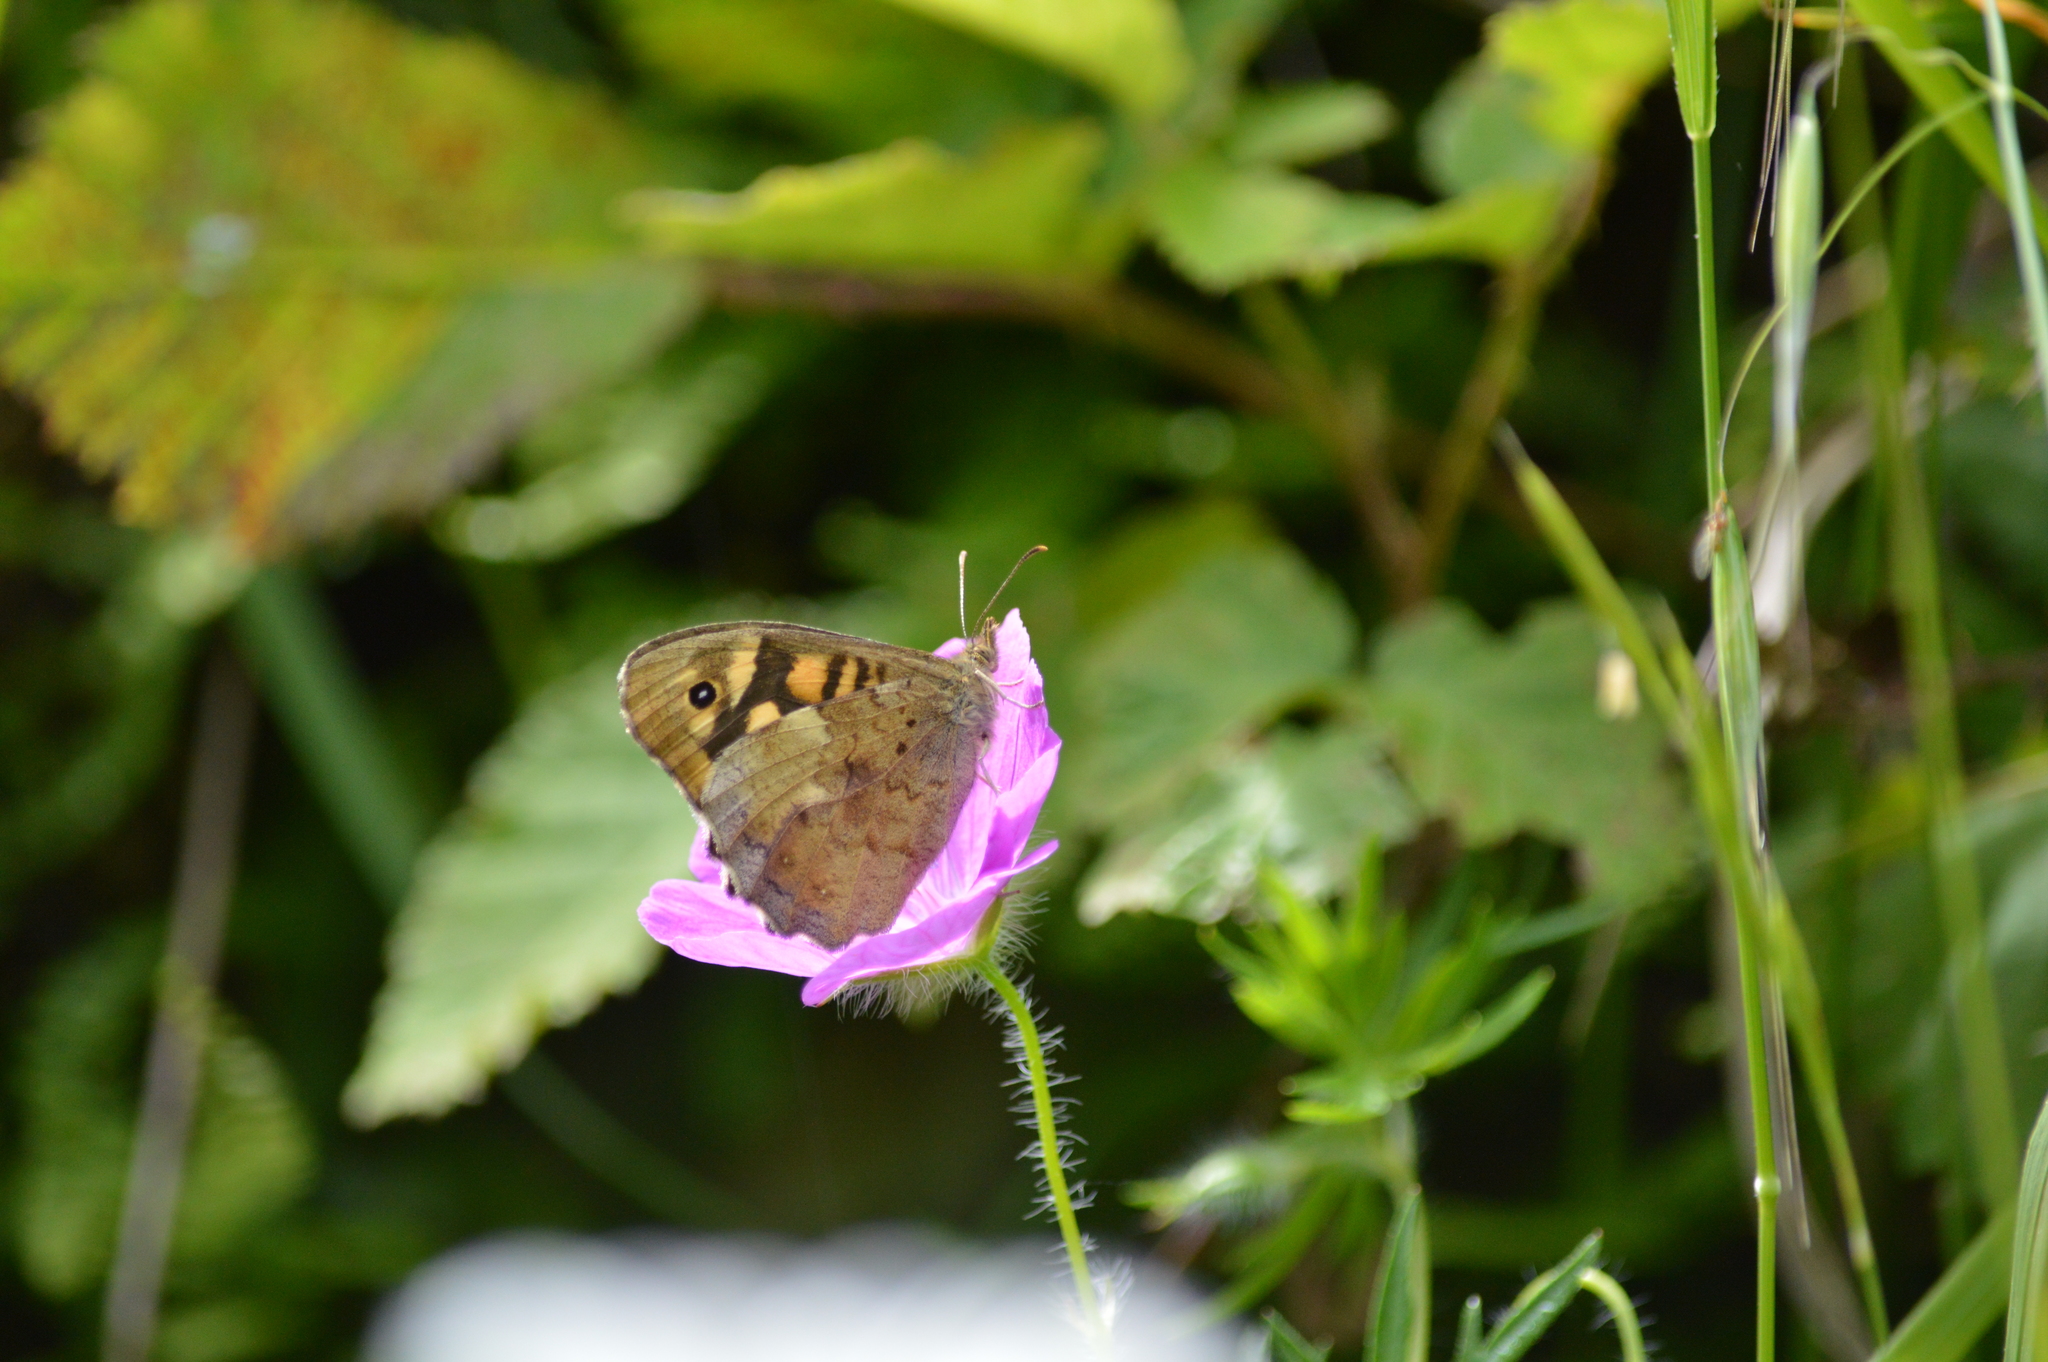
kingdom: Animalia
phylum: Arthropoda
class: Insecta
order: Lepidoptera
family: Nymphalidae
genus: Pararge
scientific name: Pararge aegeria
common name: Speckled wood
